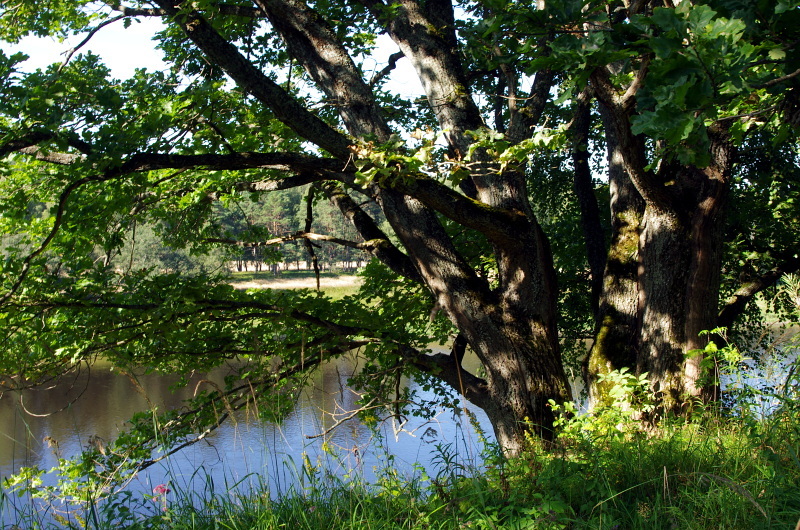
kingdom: Plantae
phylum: Tracheophyta
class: Magnoliopsida
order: Fagales
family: Fagaceae
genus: Quercus
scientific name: Quercus robur
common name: Pedunculate oak
